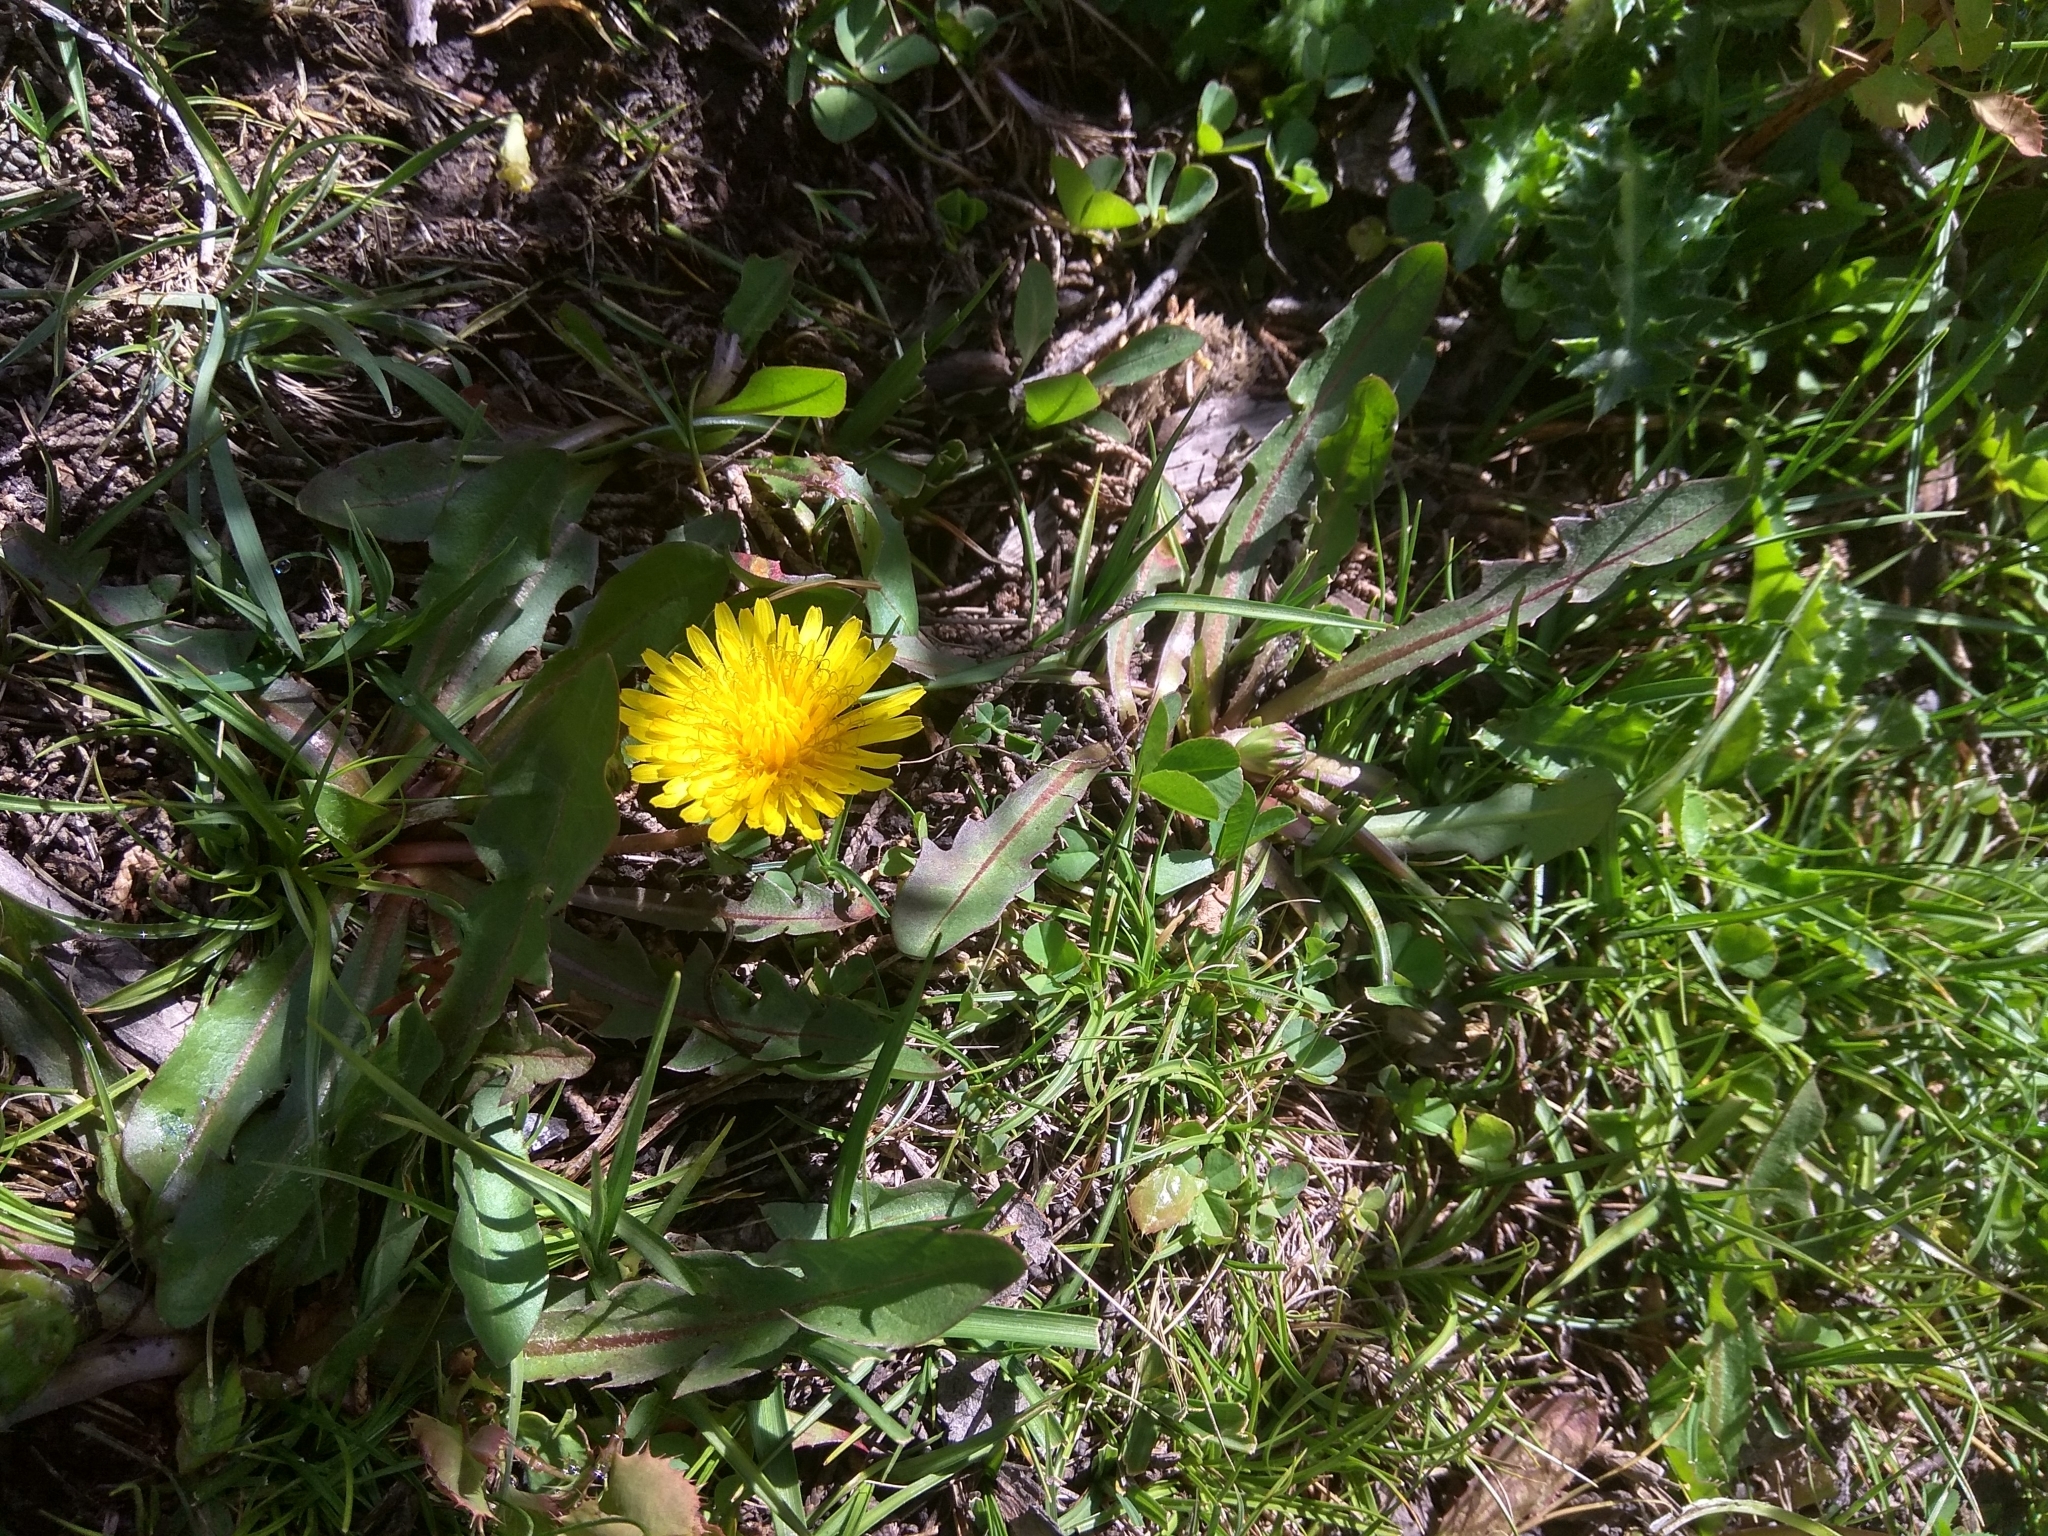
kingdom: Plantae
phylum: Tracheophyta
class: Magnoliopsida
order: Asterales
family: Asteraceae
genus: Taraxacum
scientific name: Taraxacum officinale
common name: Common dandelion
